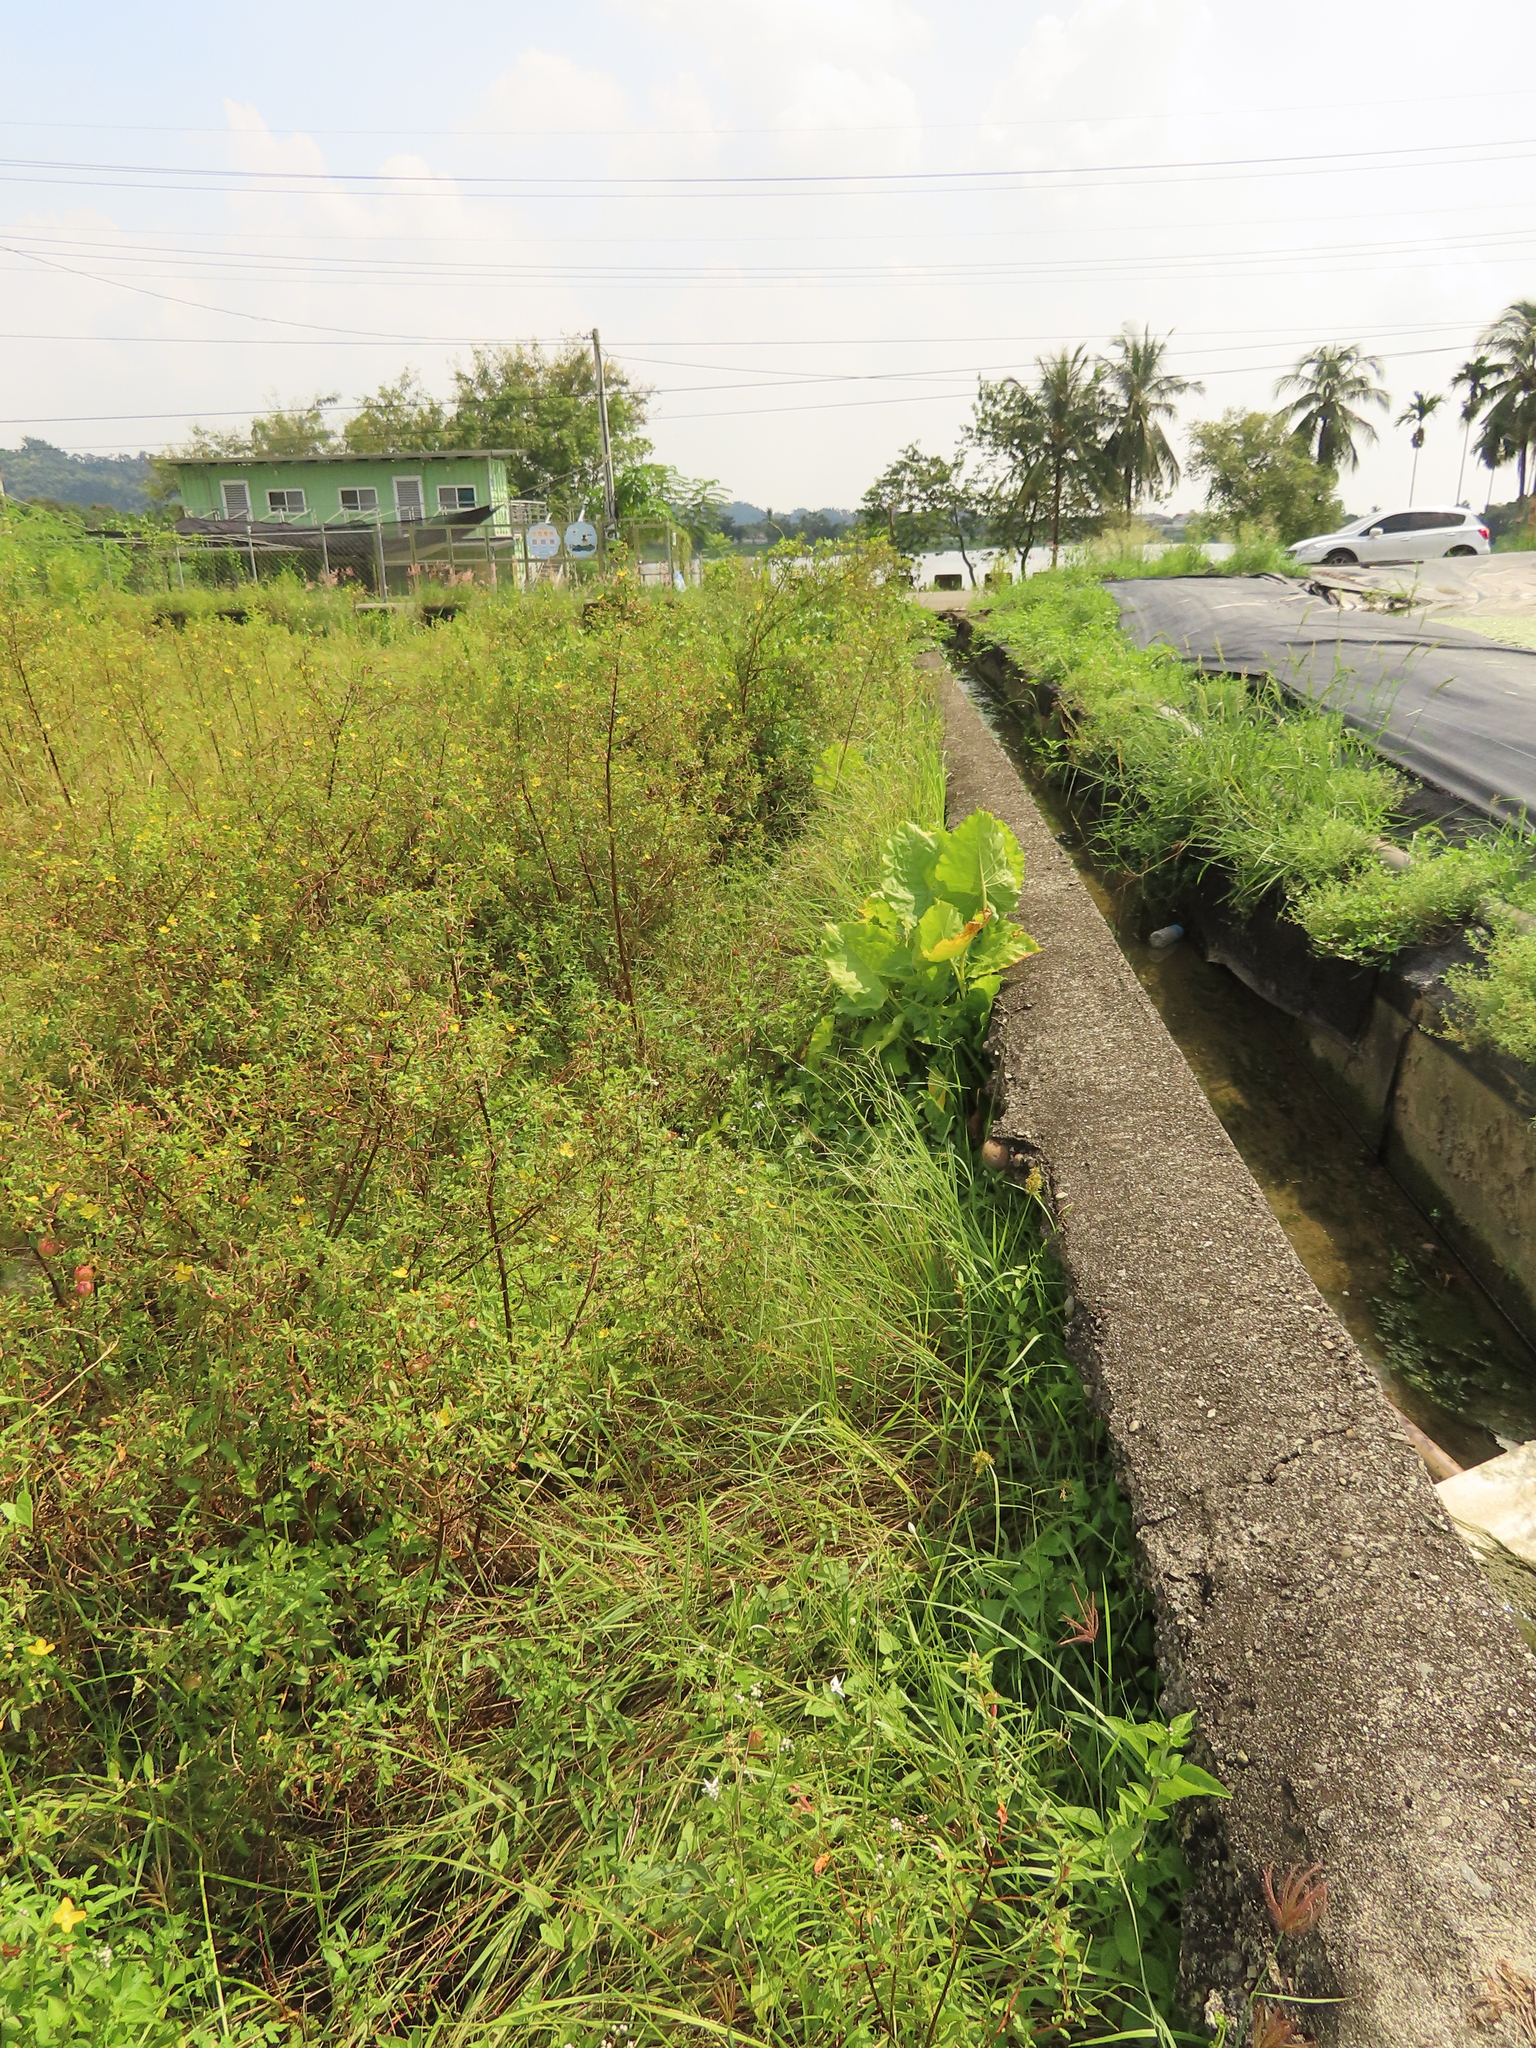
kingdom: Plantae
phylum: Tracheophyta
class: Magnoliopsida
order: Asterales
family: Campanulaceae
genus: Hippobroma
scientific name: Hippobroma longiflora
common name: Madamfate
